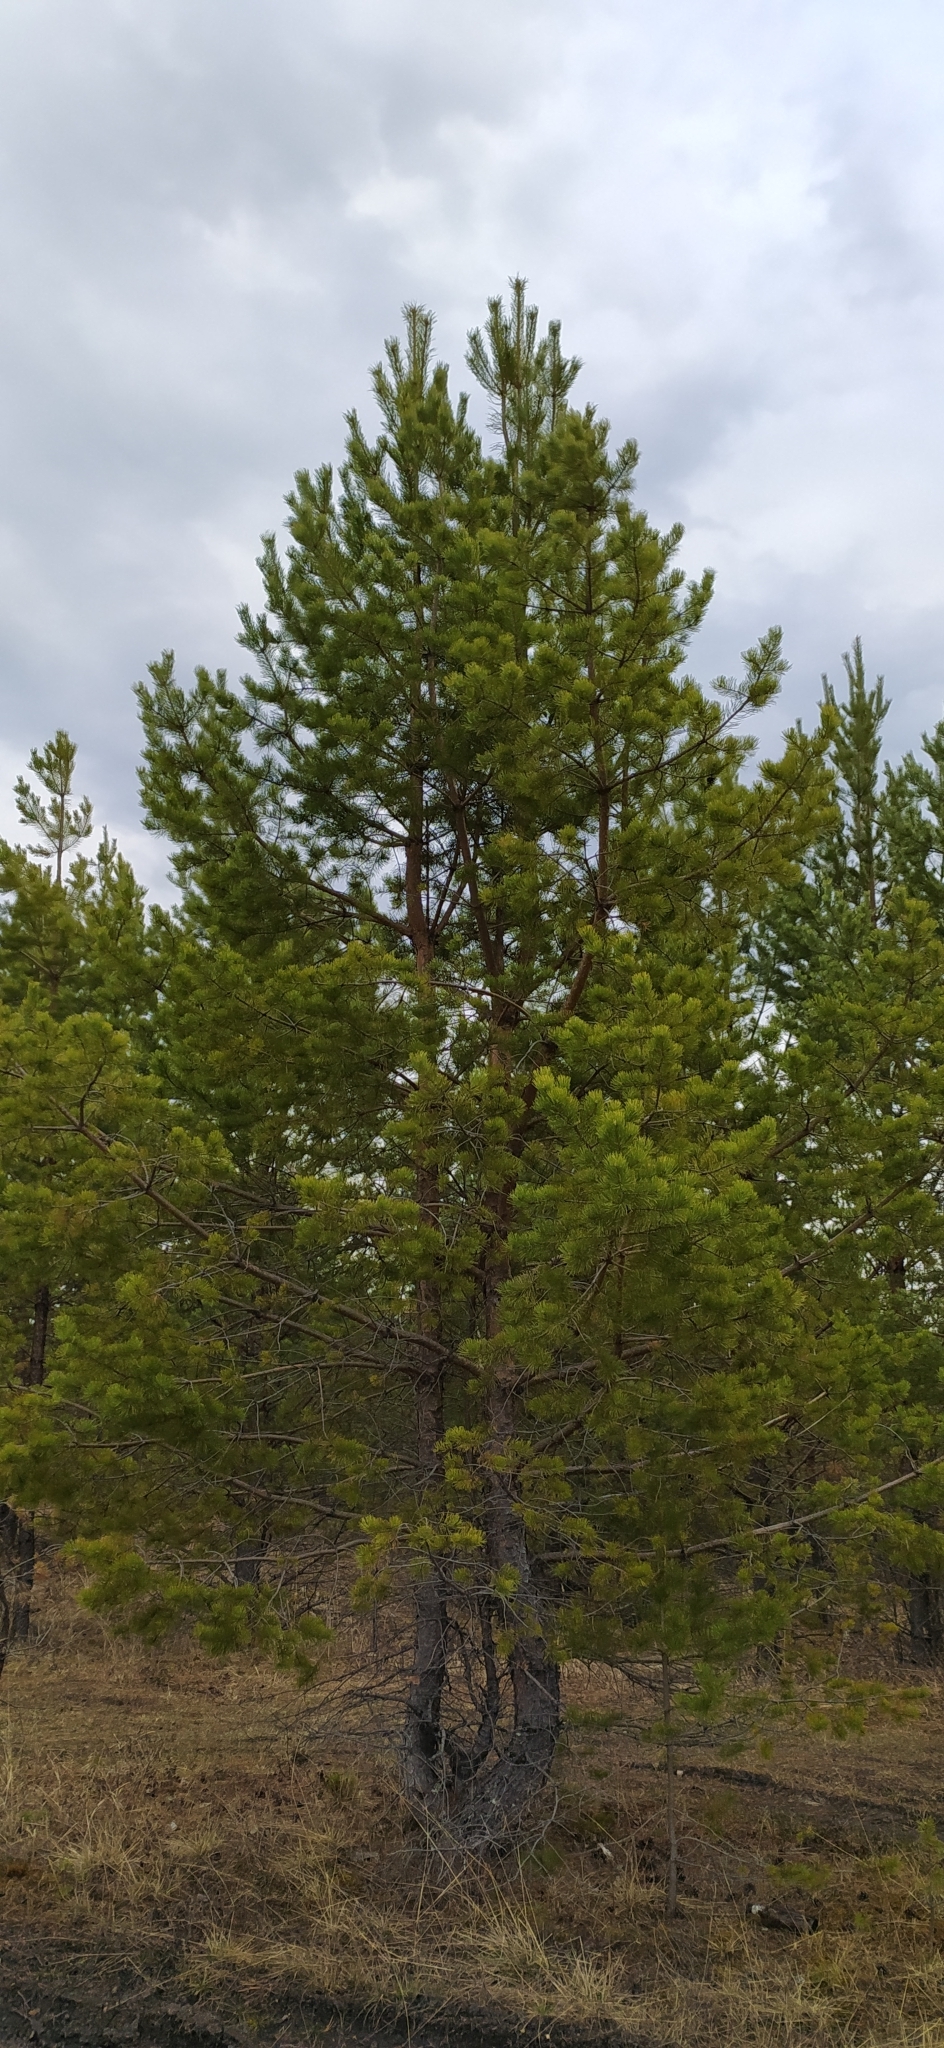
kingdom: Plantae
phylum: Tracheophyta
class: Pinopsida
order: Pinales
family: Pinaceae
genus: Pinus
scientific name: Pinus sylvestris
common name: Scots pine
